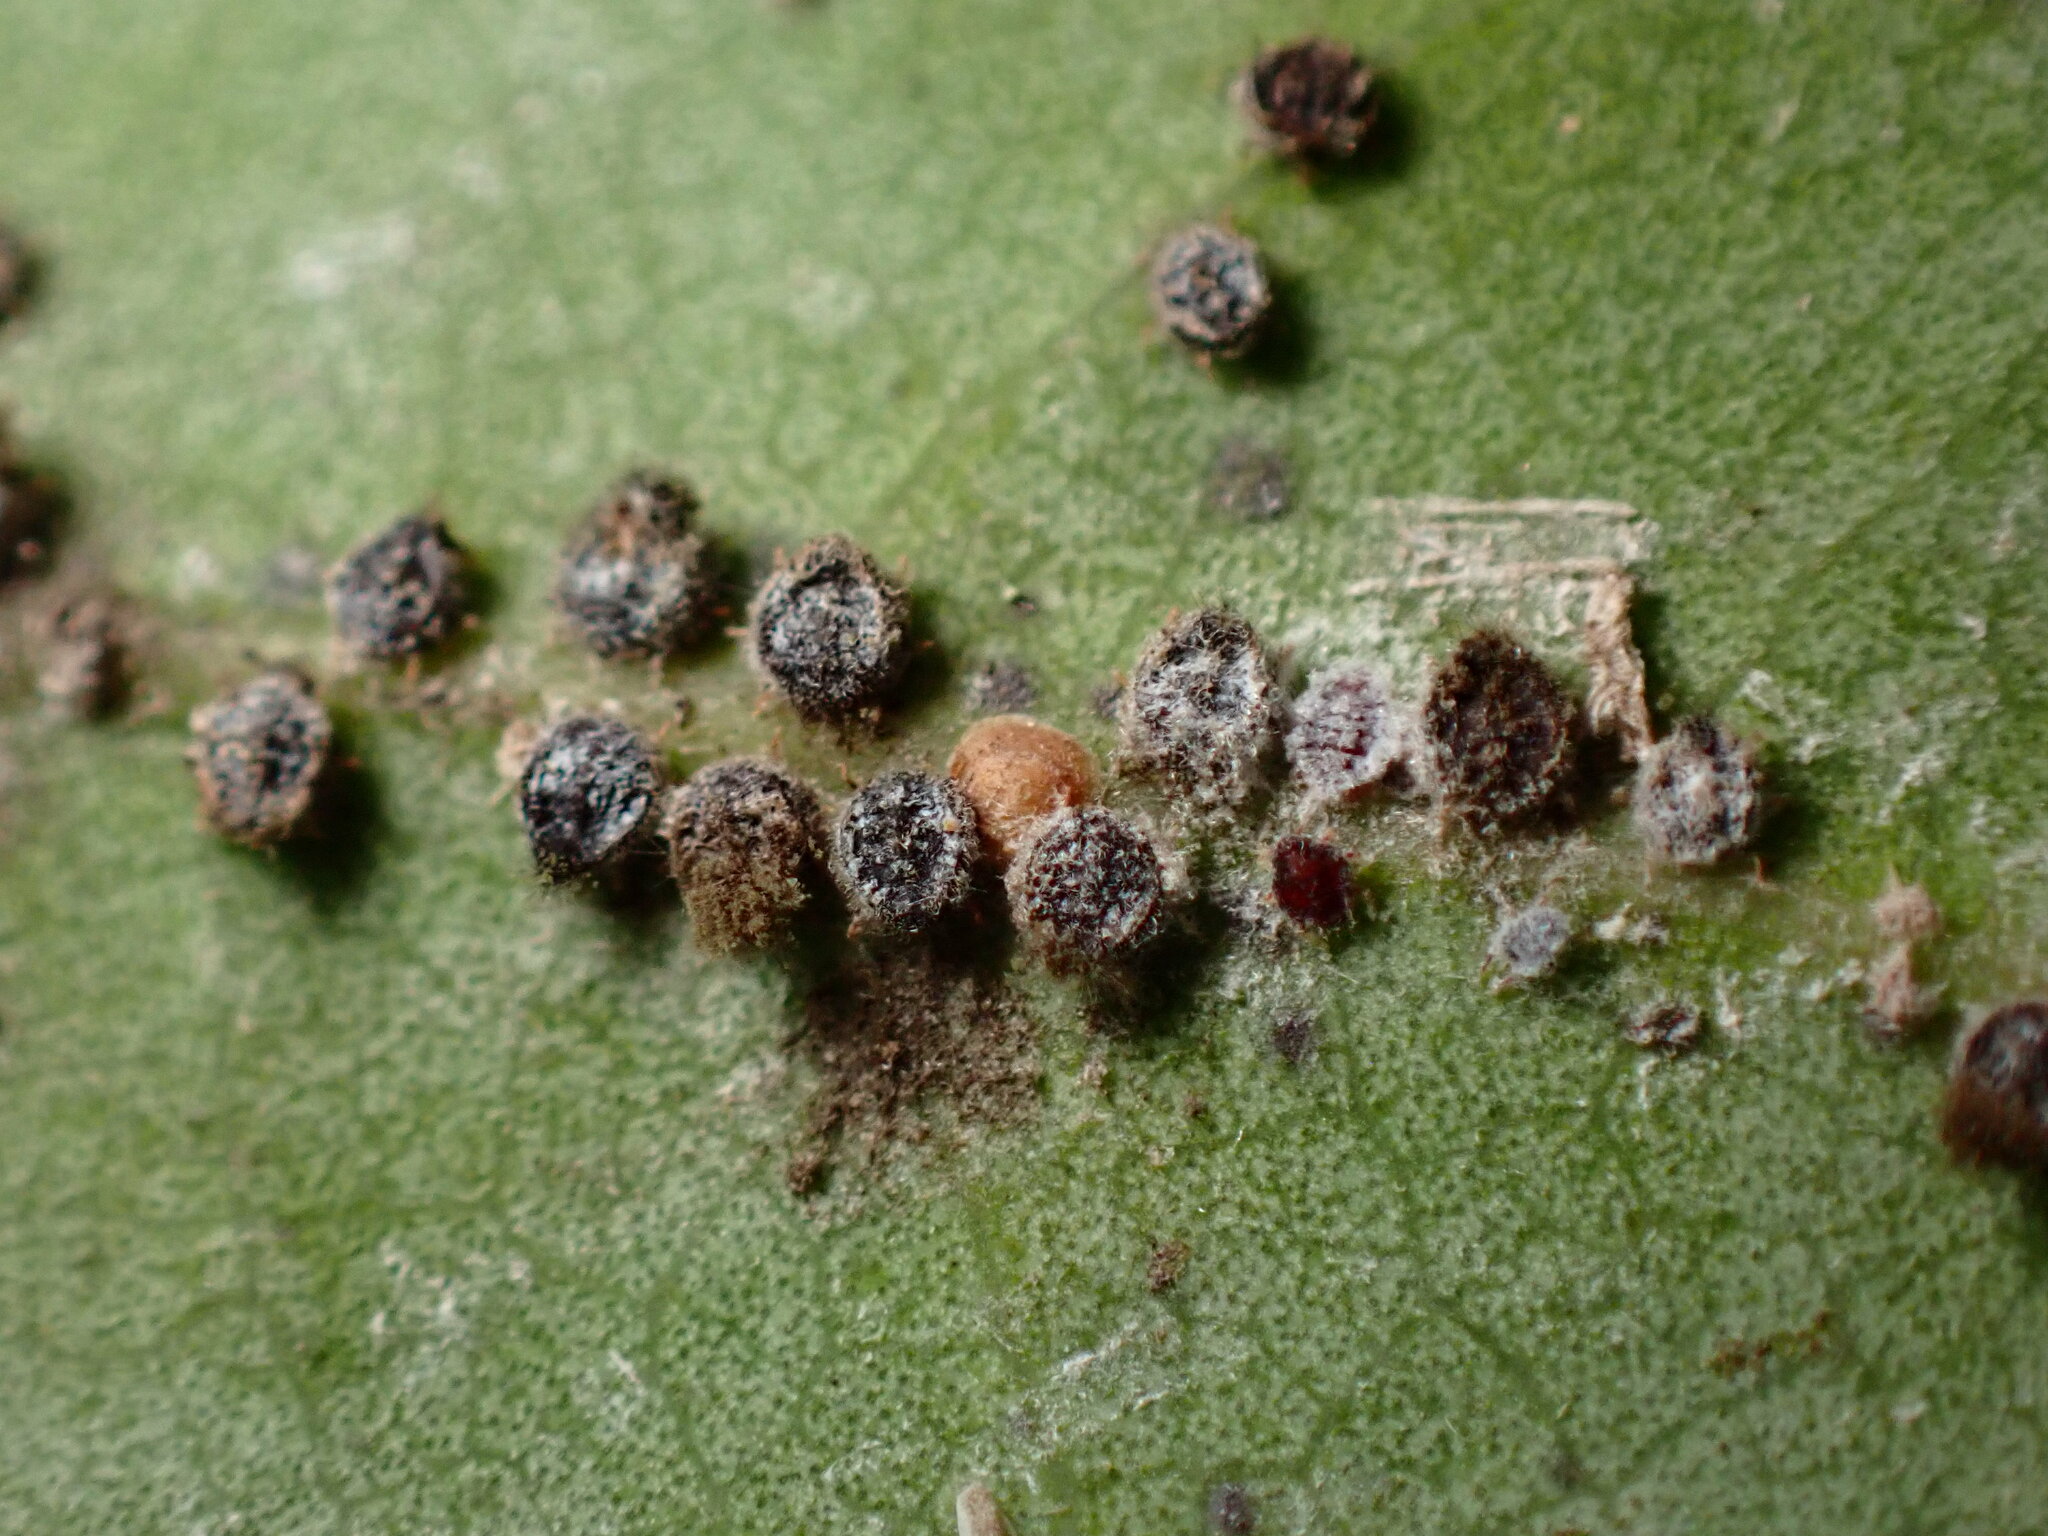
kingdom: Animalia
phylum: Arthropoda
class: Insecta
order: Hemiptera
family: Aphididae
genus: Euthoracaphis
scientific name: Euthoracaphis umbellulariae
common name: Aphid
